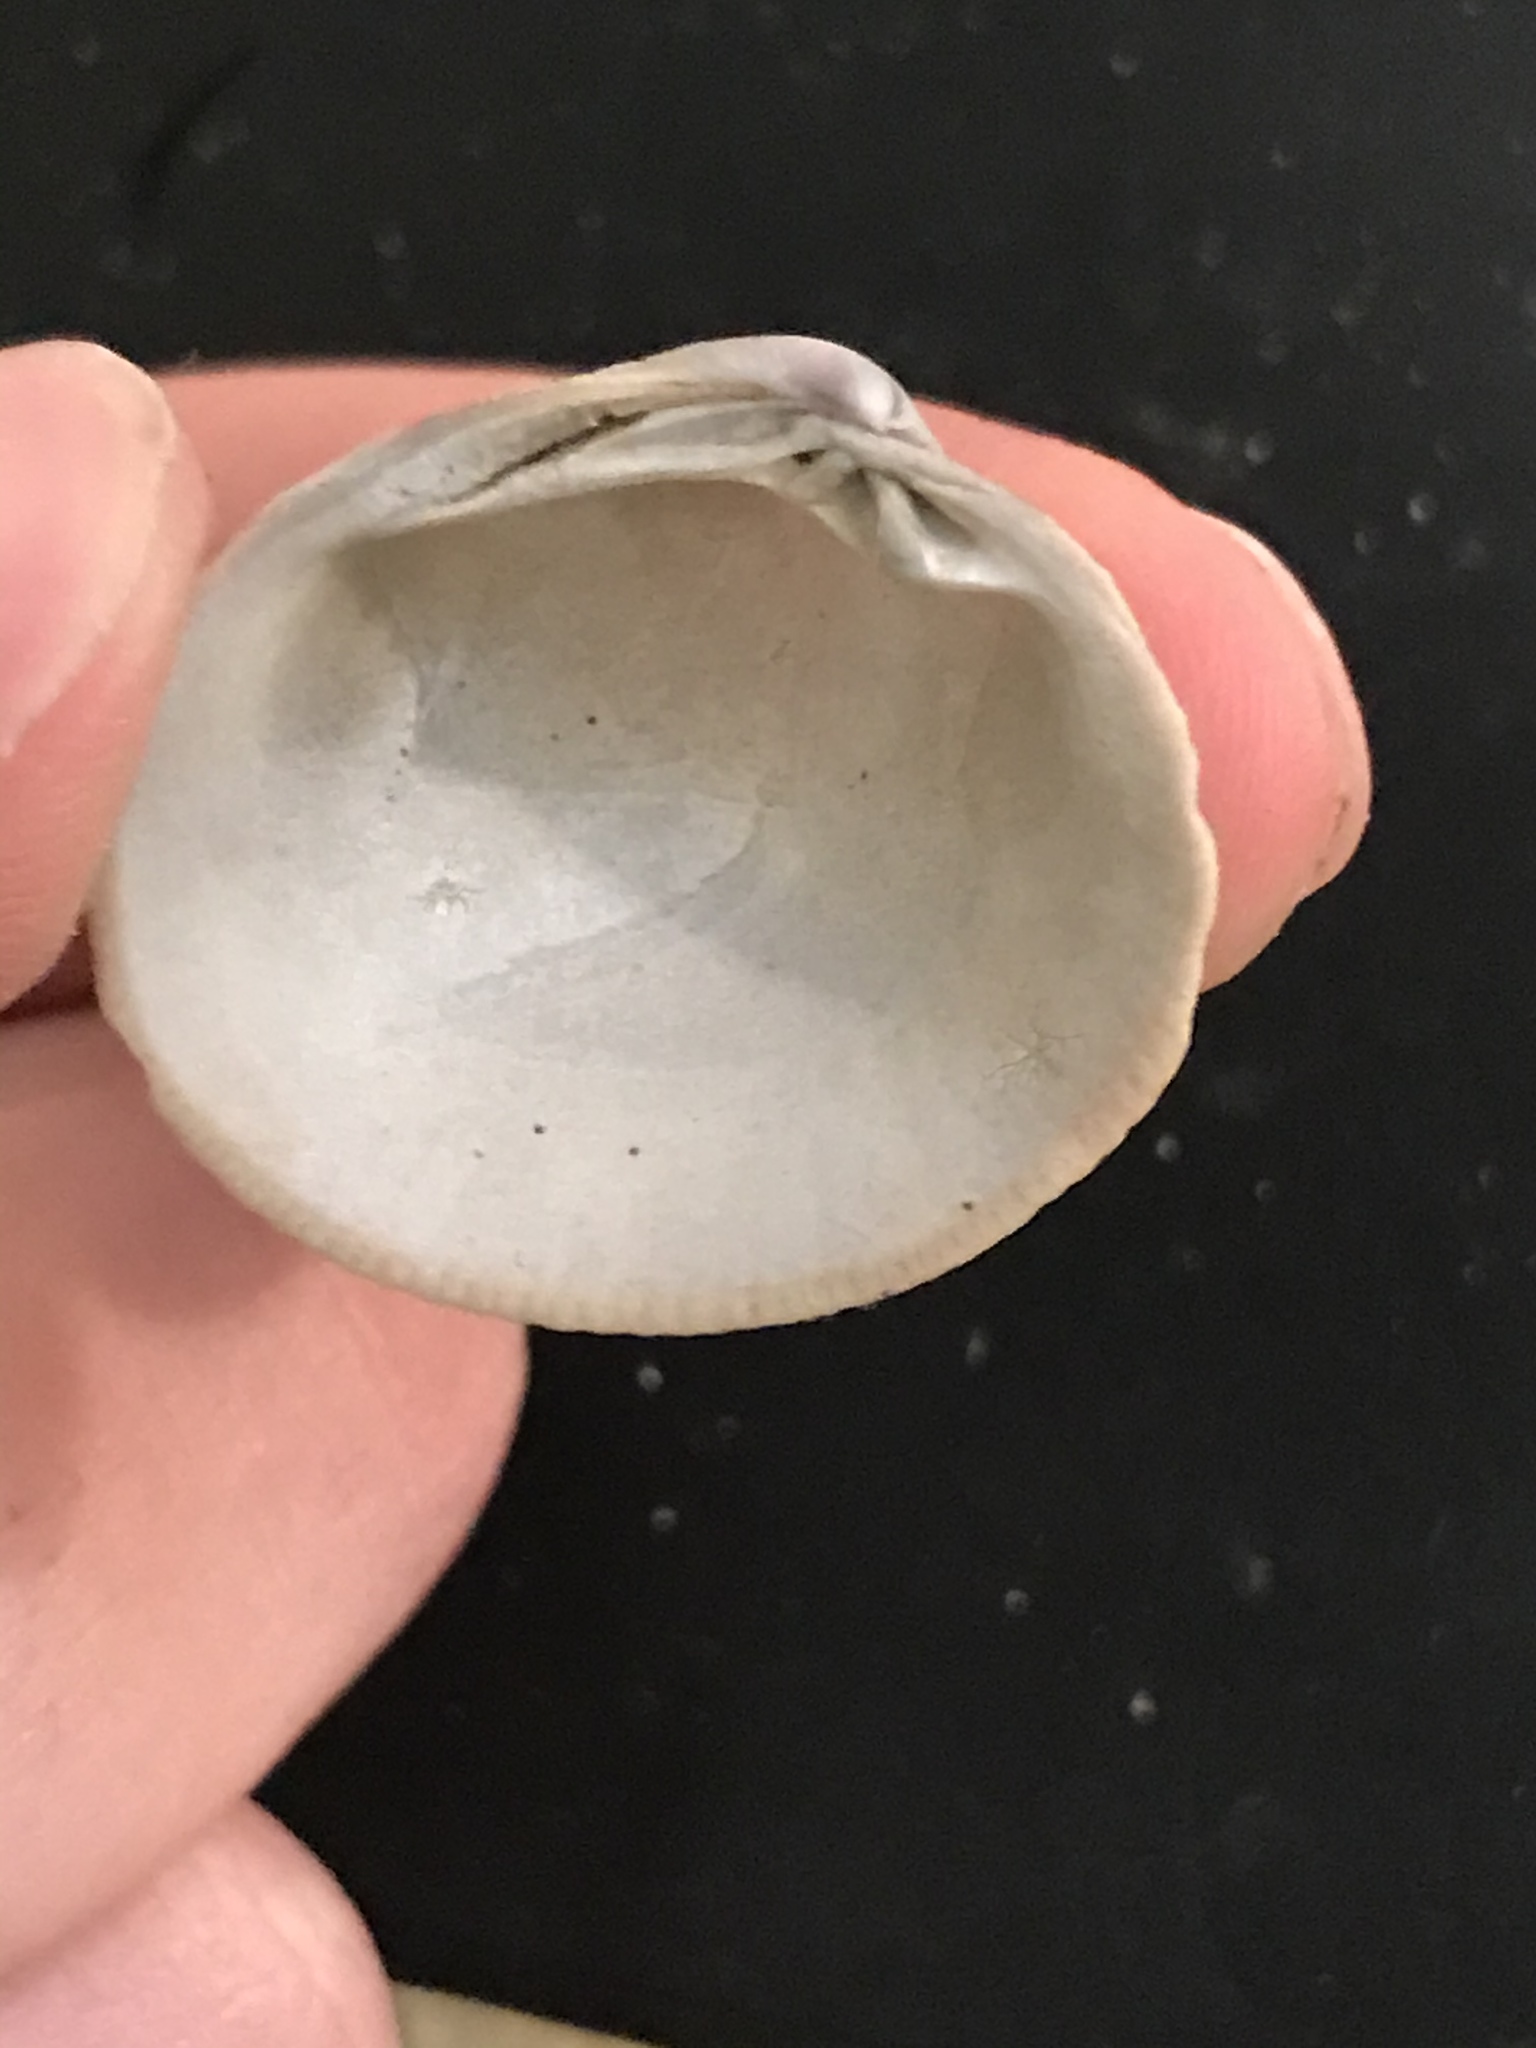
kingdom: Animalia
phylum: Mollusca
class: Bivalvia
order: Venerida
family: Veneridae
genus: Leukoma
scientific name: Leukoma staminea
